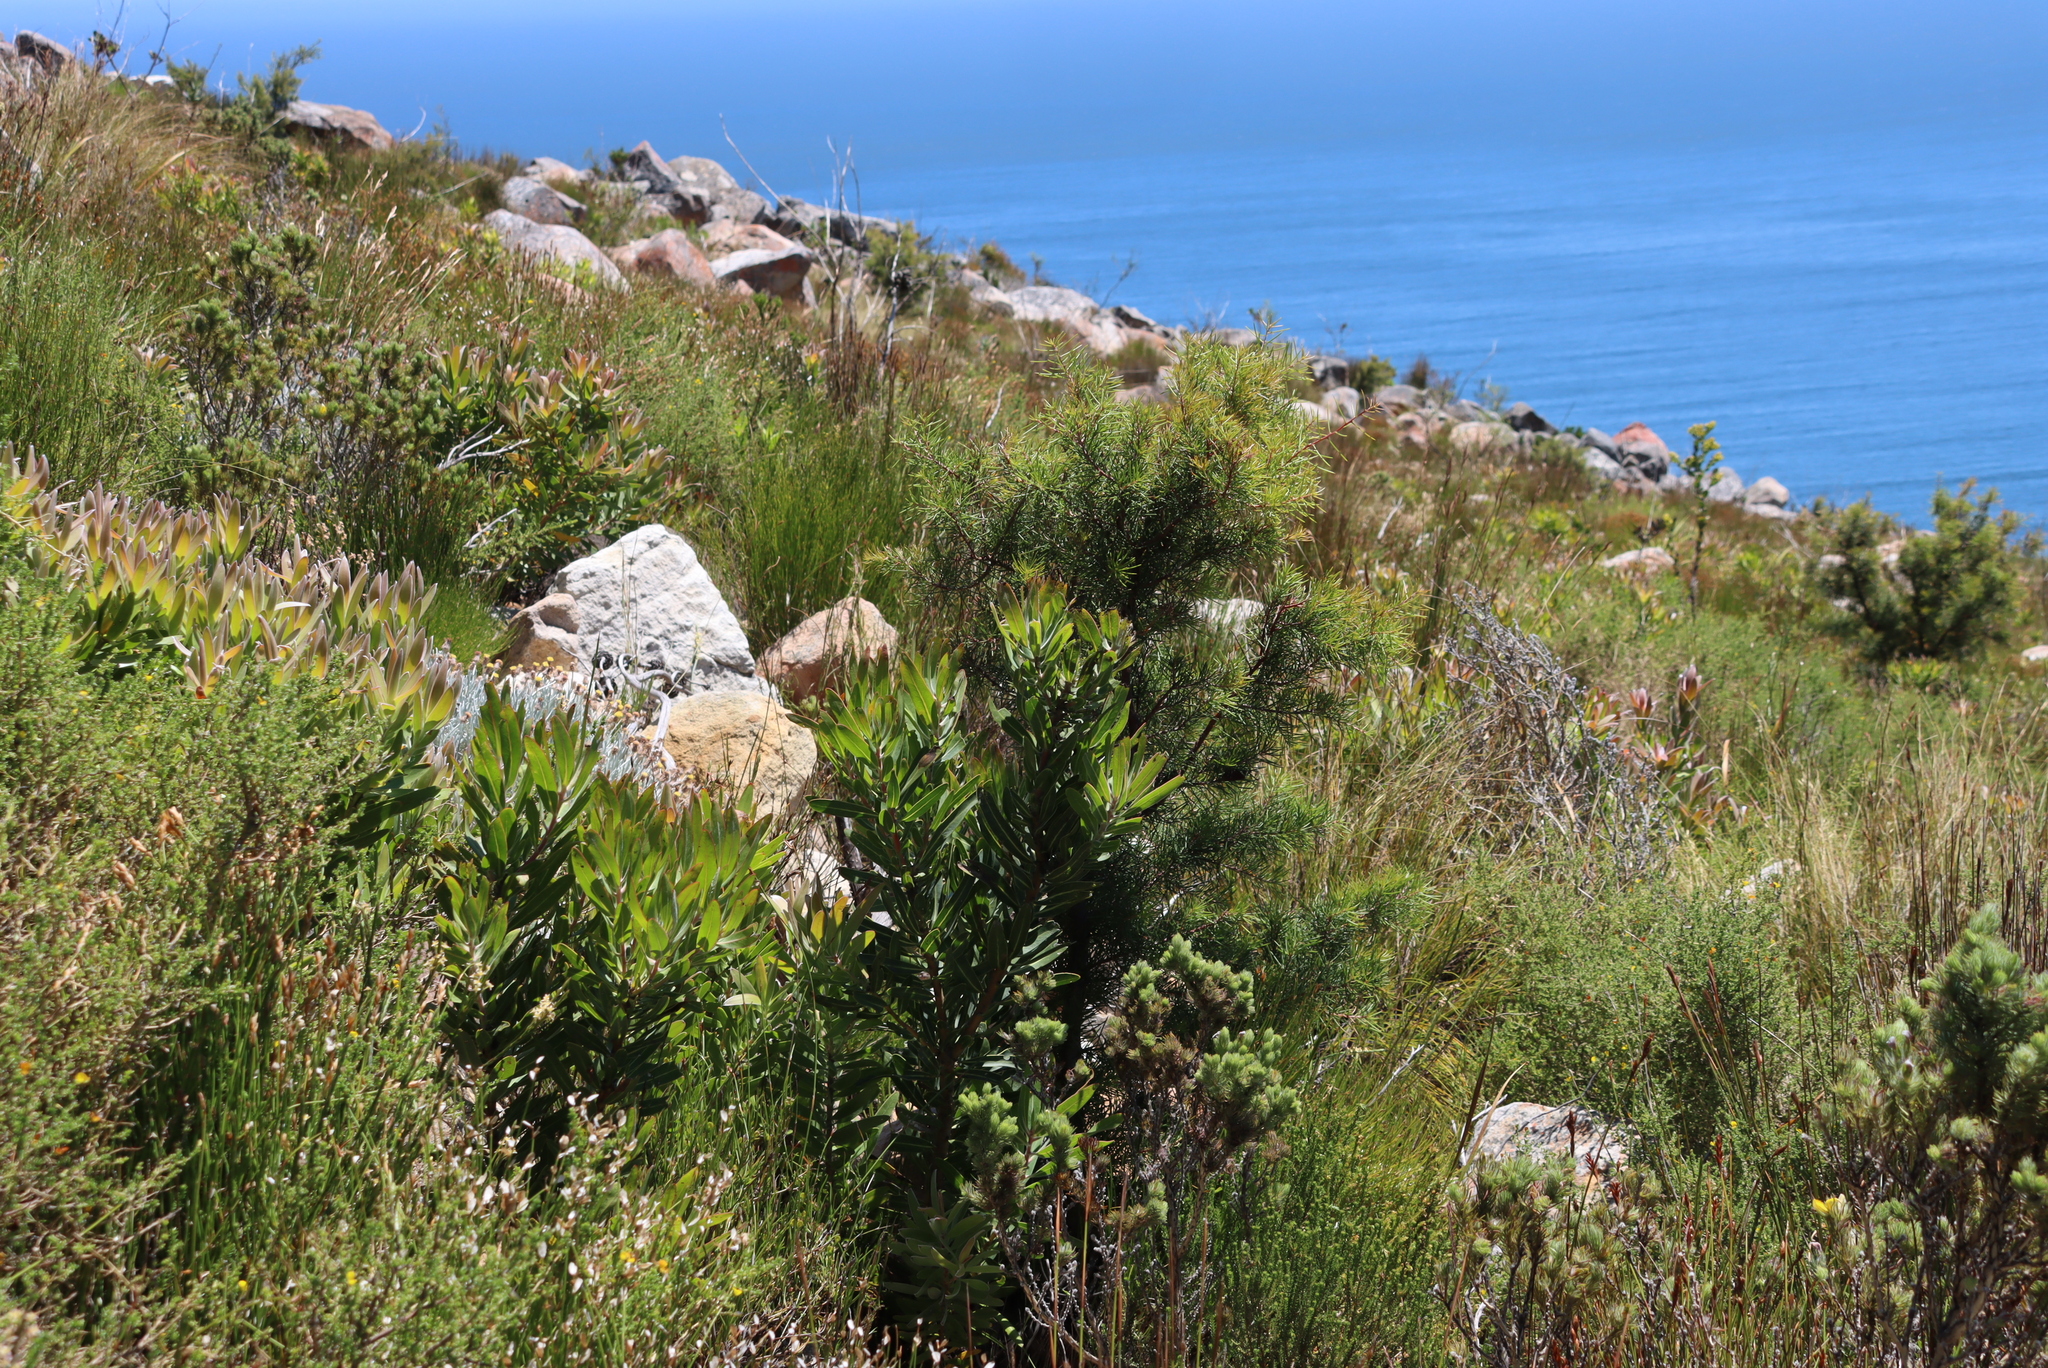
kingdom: Plantae
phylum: Tracheophyta
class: Magnoliopsida
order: Proteales
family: Proteaceae
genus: Protea
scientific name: Protea laurifolia
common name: Grey-leaf sugarbsh
